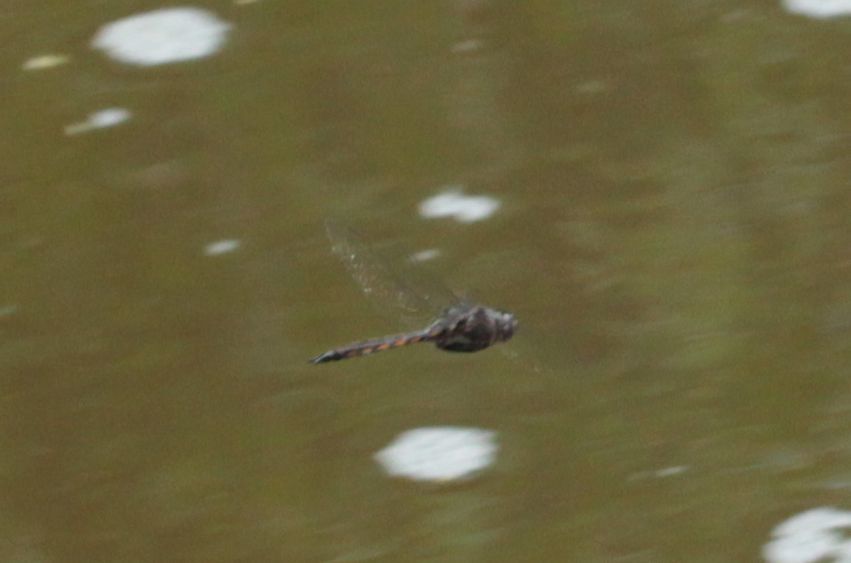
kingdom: Animalia
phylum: Arthropoda
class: Insecta
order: Odonata
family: Corduliidae
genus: Epitheca
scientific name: Epitheca
